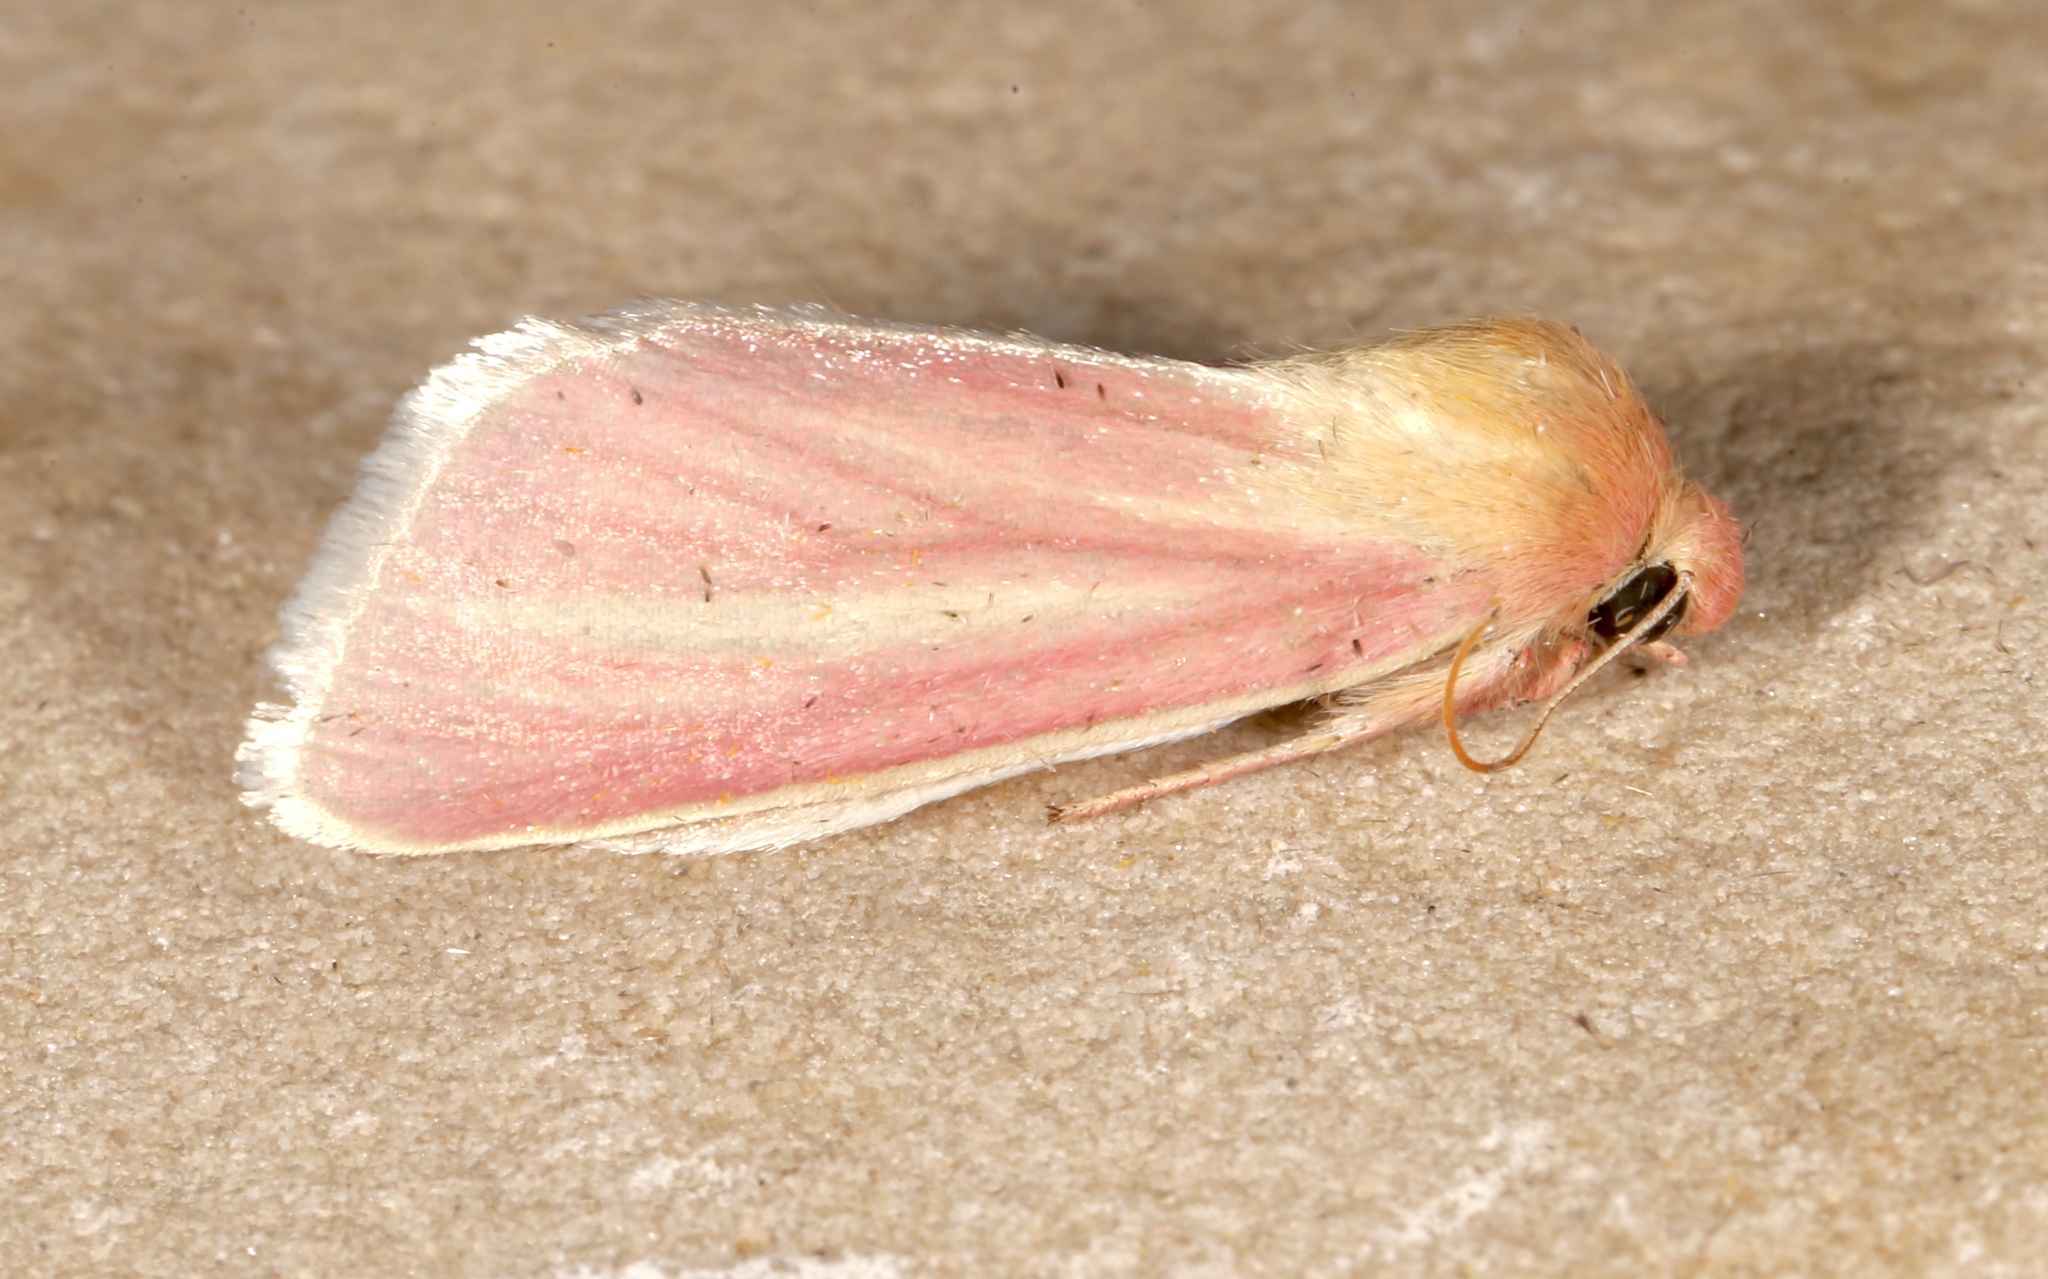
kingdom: Animalia
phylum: Arthropoda
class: Insecta
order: Lepidoptera
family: Noctuidae
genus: Heliocheilus
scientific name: Heliocheilus julia
